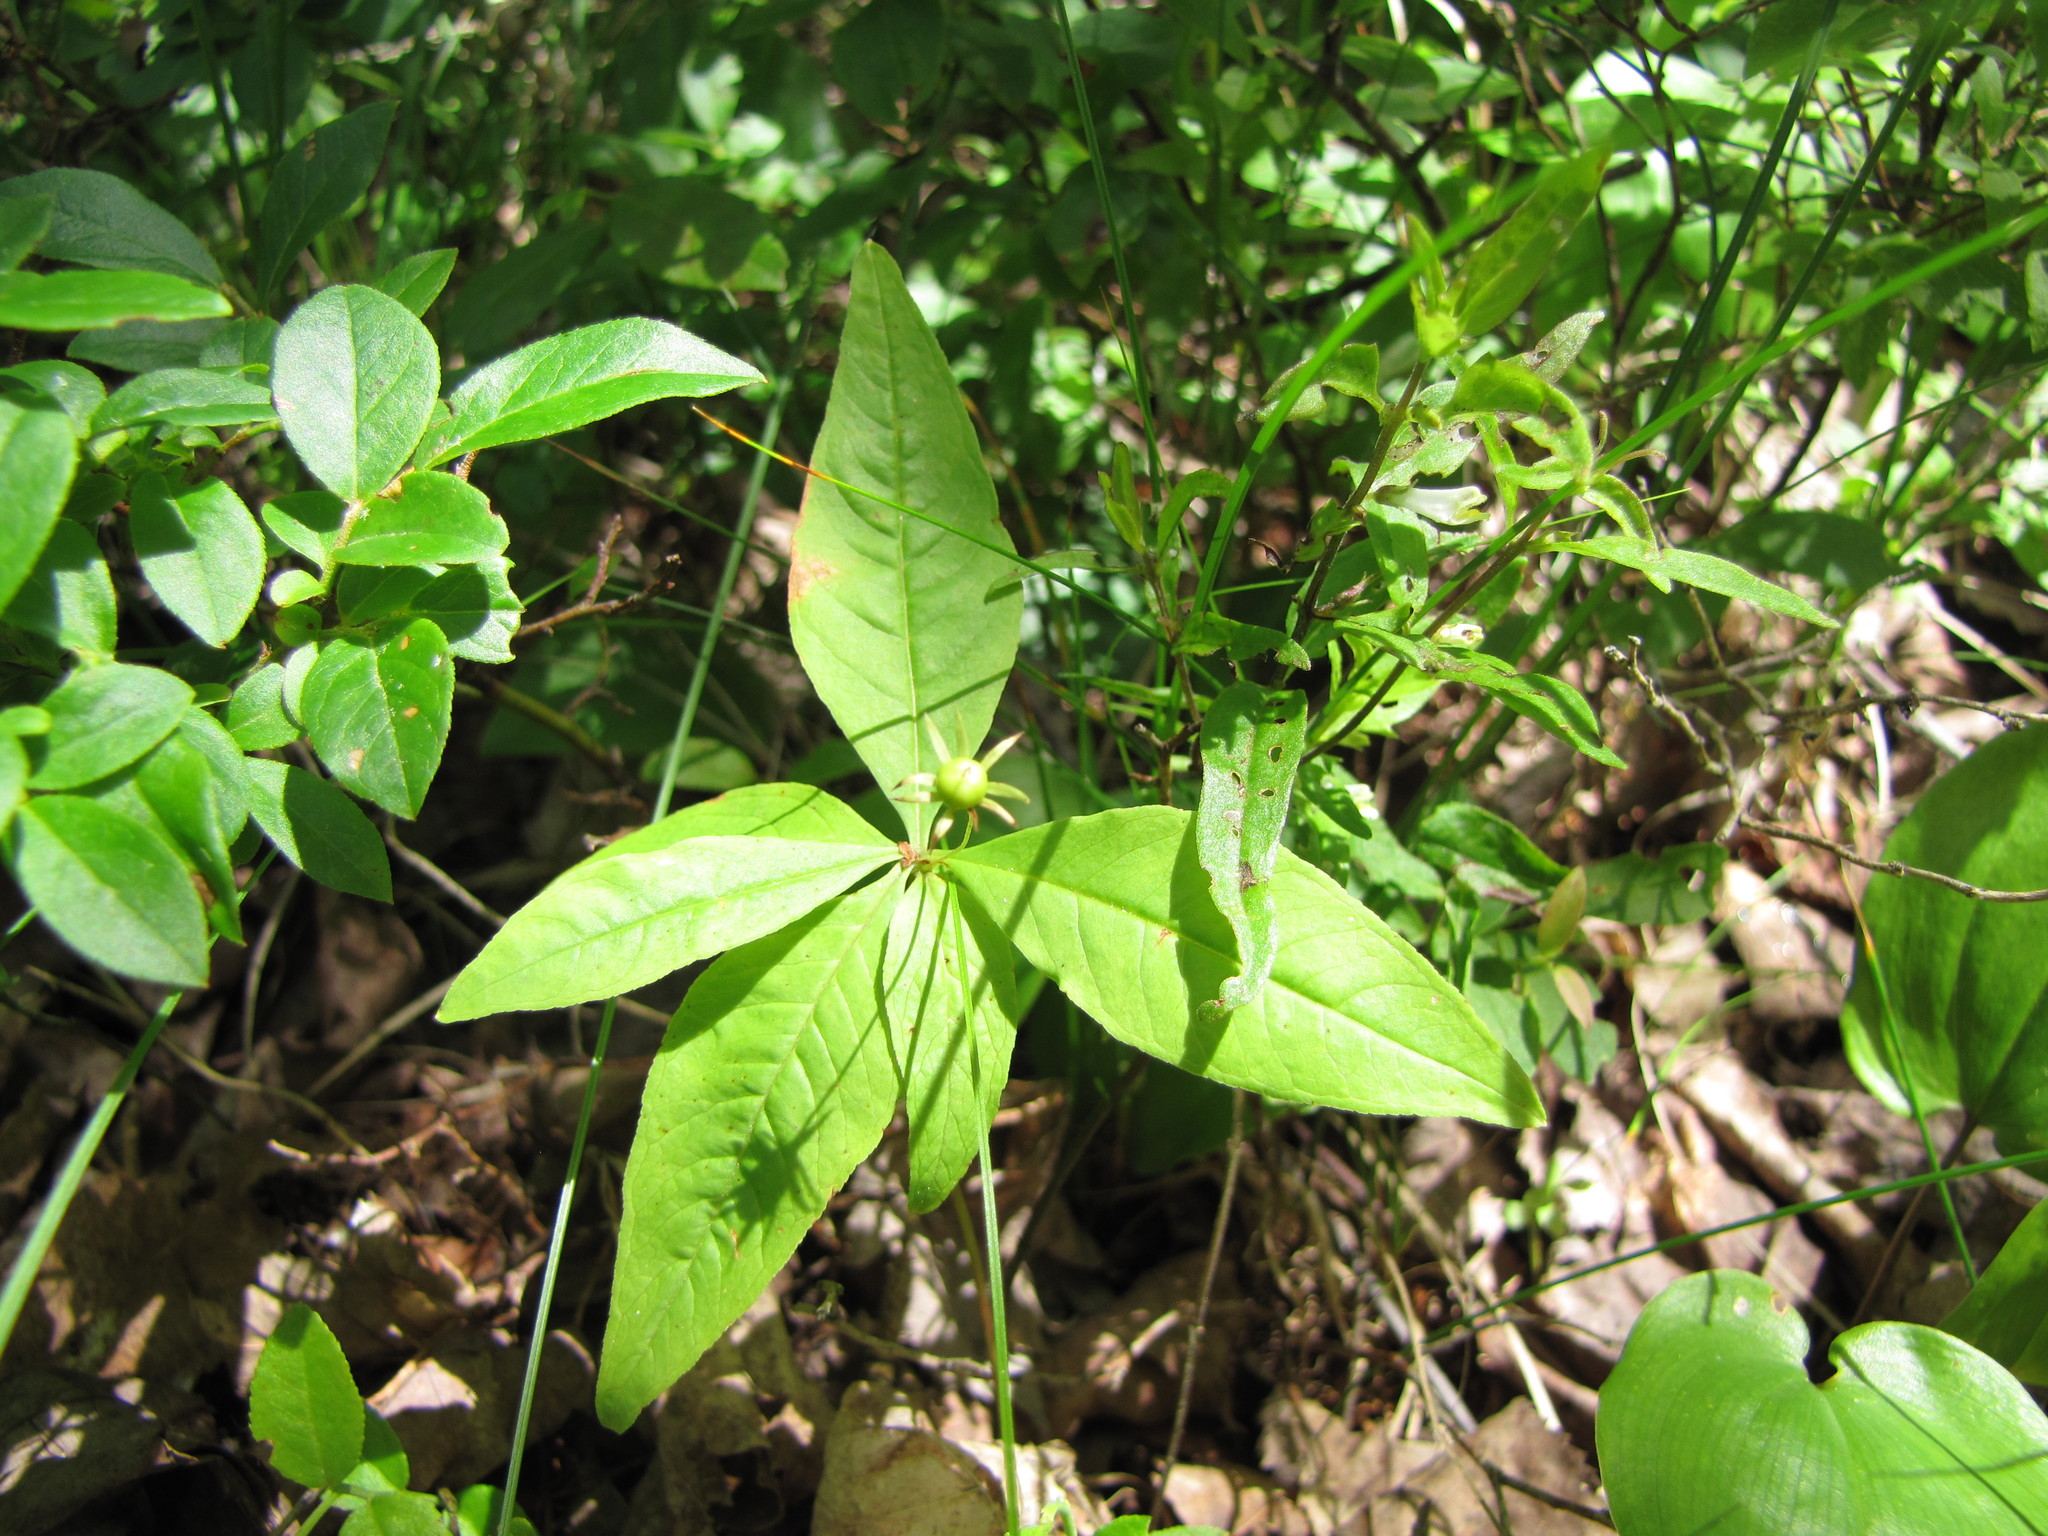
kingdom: Plantae
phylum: Tracheophyta
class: Magnoliopsida
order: Ericales
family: Primulaceae
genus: Lysimachia
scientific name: Lysimachia borealis
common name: American starflower
